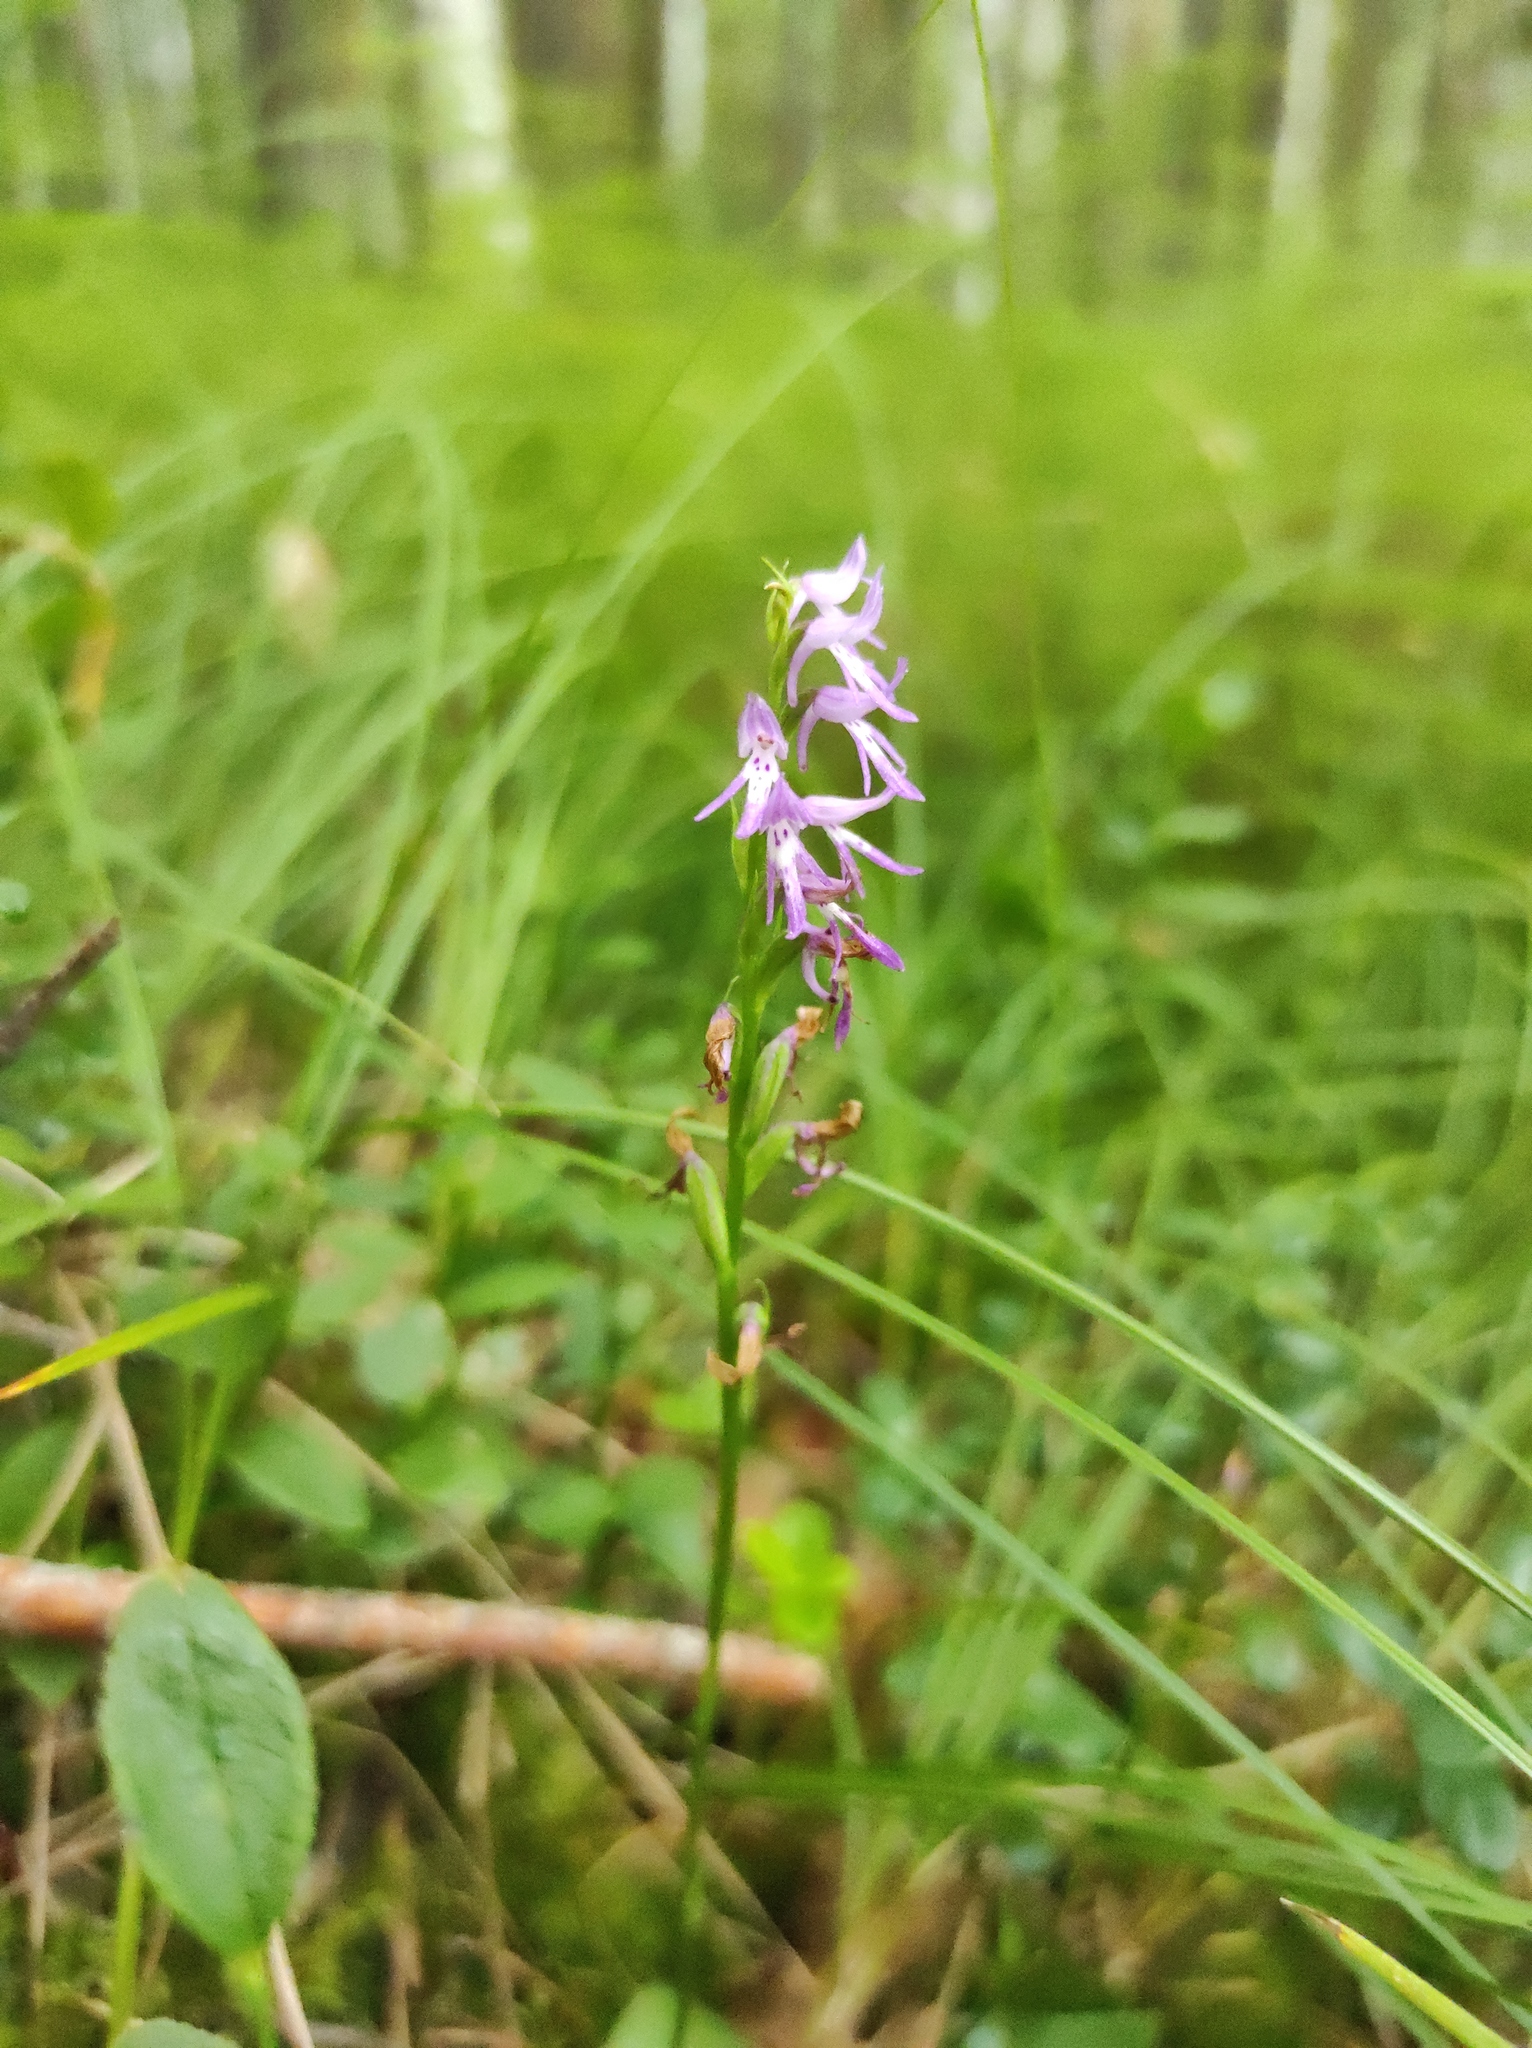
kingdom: Plantae
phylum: Tracheophyta
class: Liliopsida
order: Asparagales
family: Orchidaceae
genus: Hemipilia
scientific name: Hemipilia cucullata
